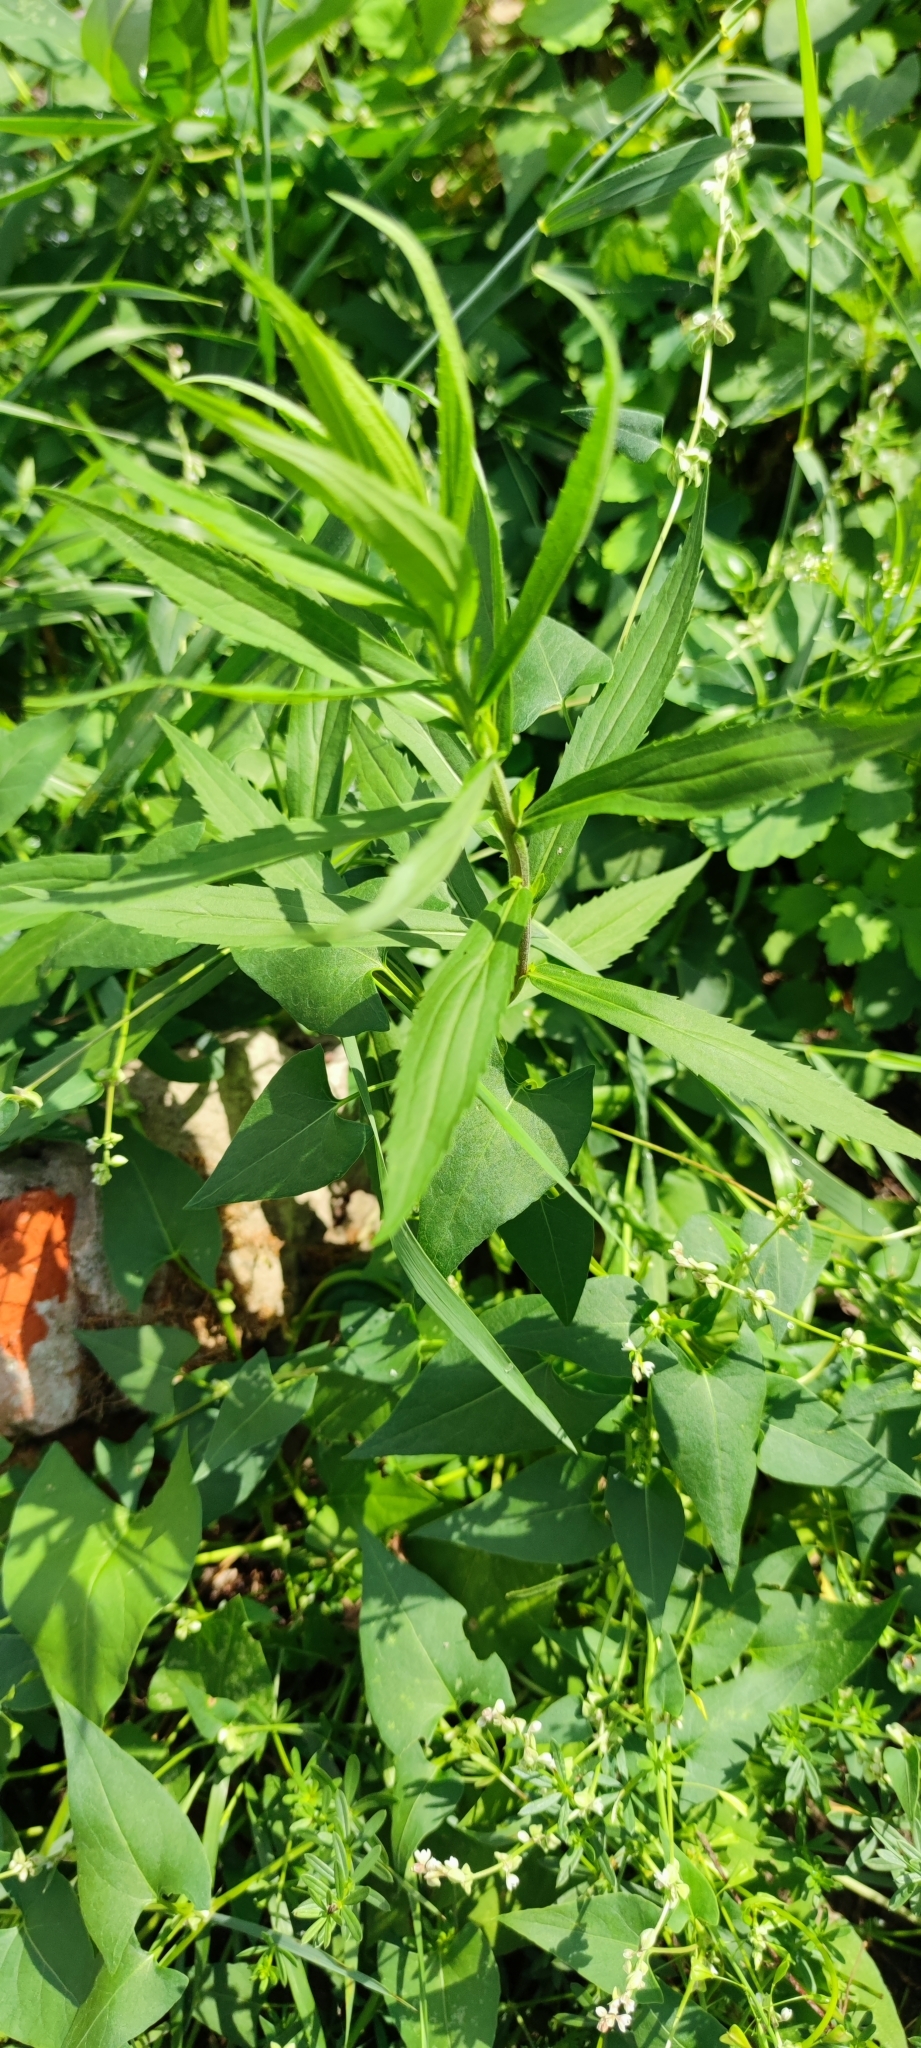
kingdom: Plantae
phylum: Tracheophyta
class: Magnoliopsida
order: Asterales
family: Asteraceae
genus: Solidago
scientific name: Solidago canadensis
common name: Canada goldenrod
